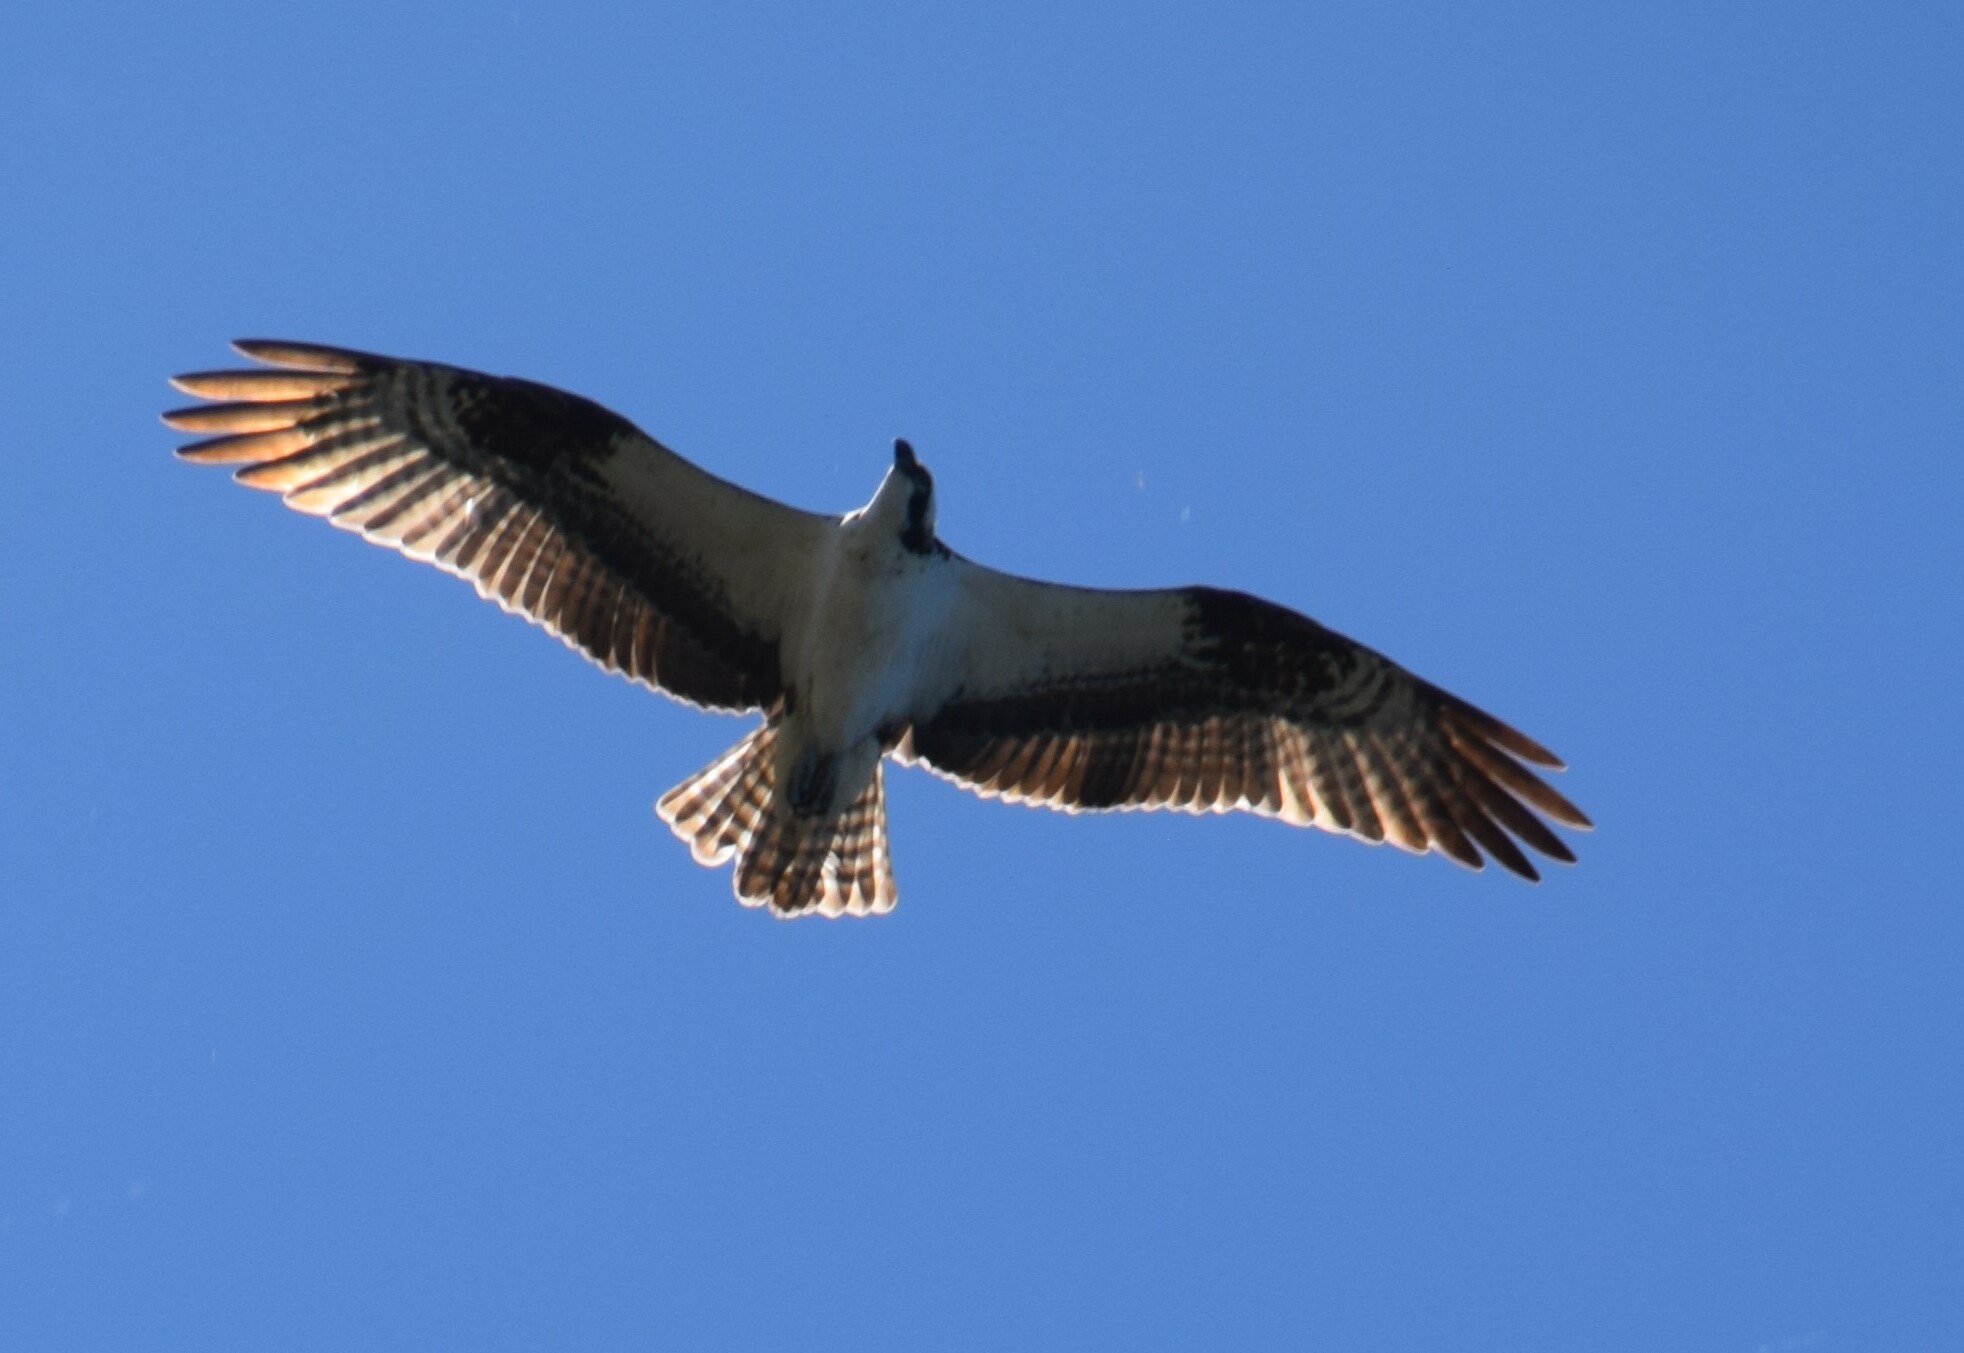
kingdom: Animalia
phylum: Chordata
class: Aves
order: Accipitriformes
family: Pandionidae
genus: Pandion
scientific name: Pandion haliaetus
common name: Osprey
